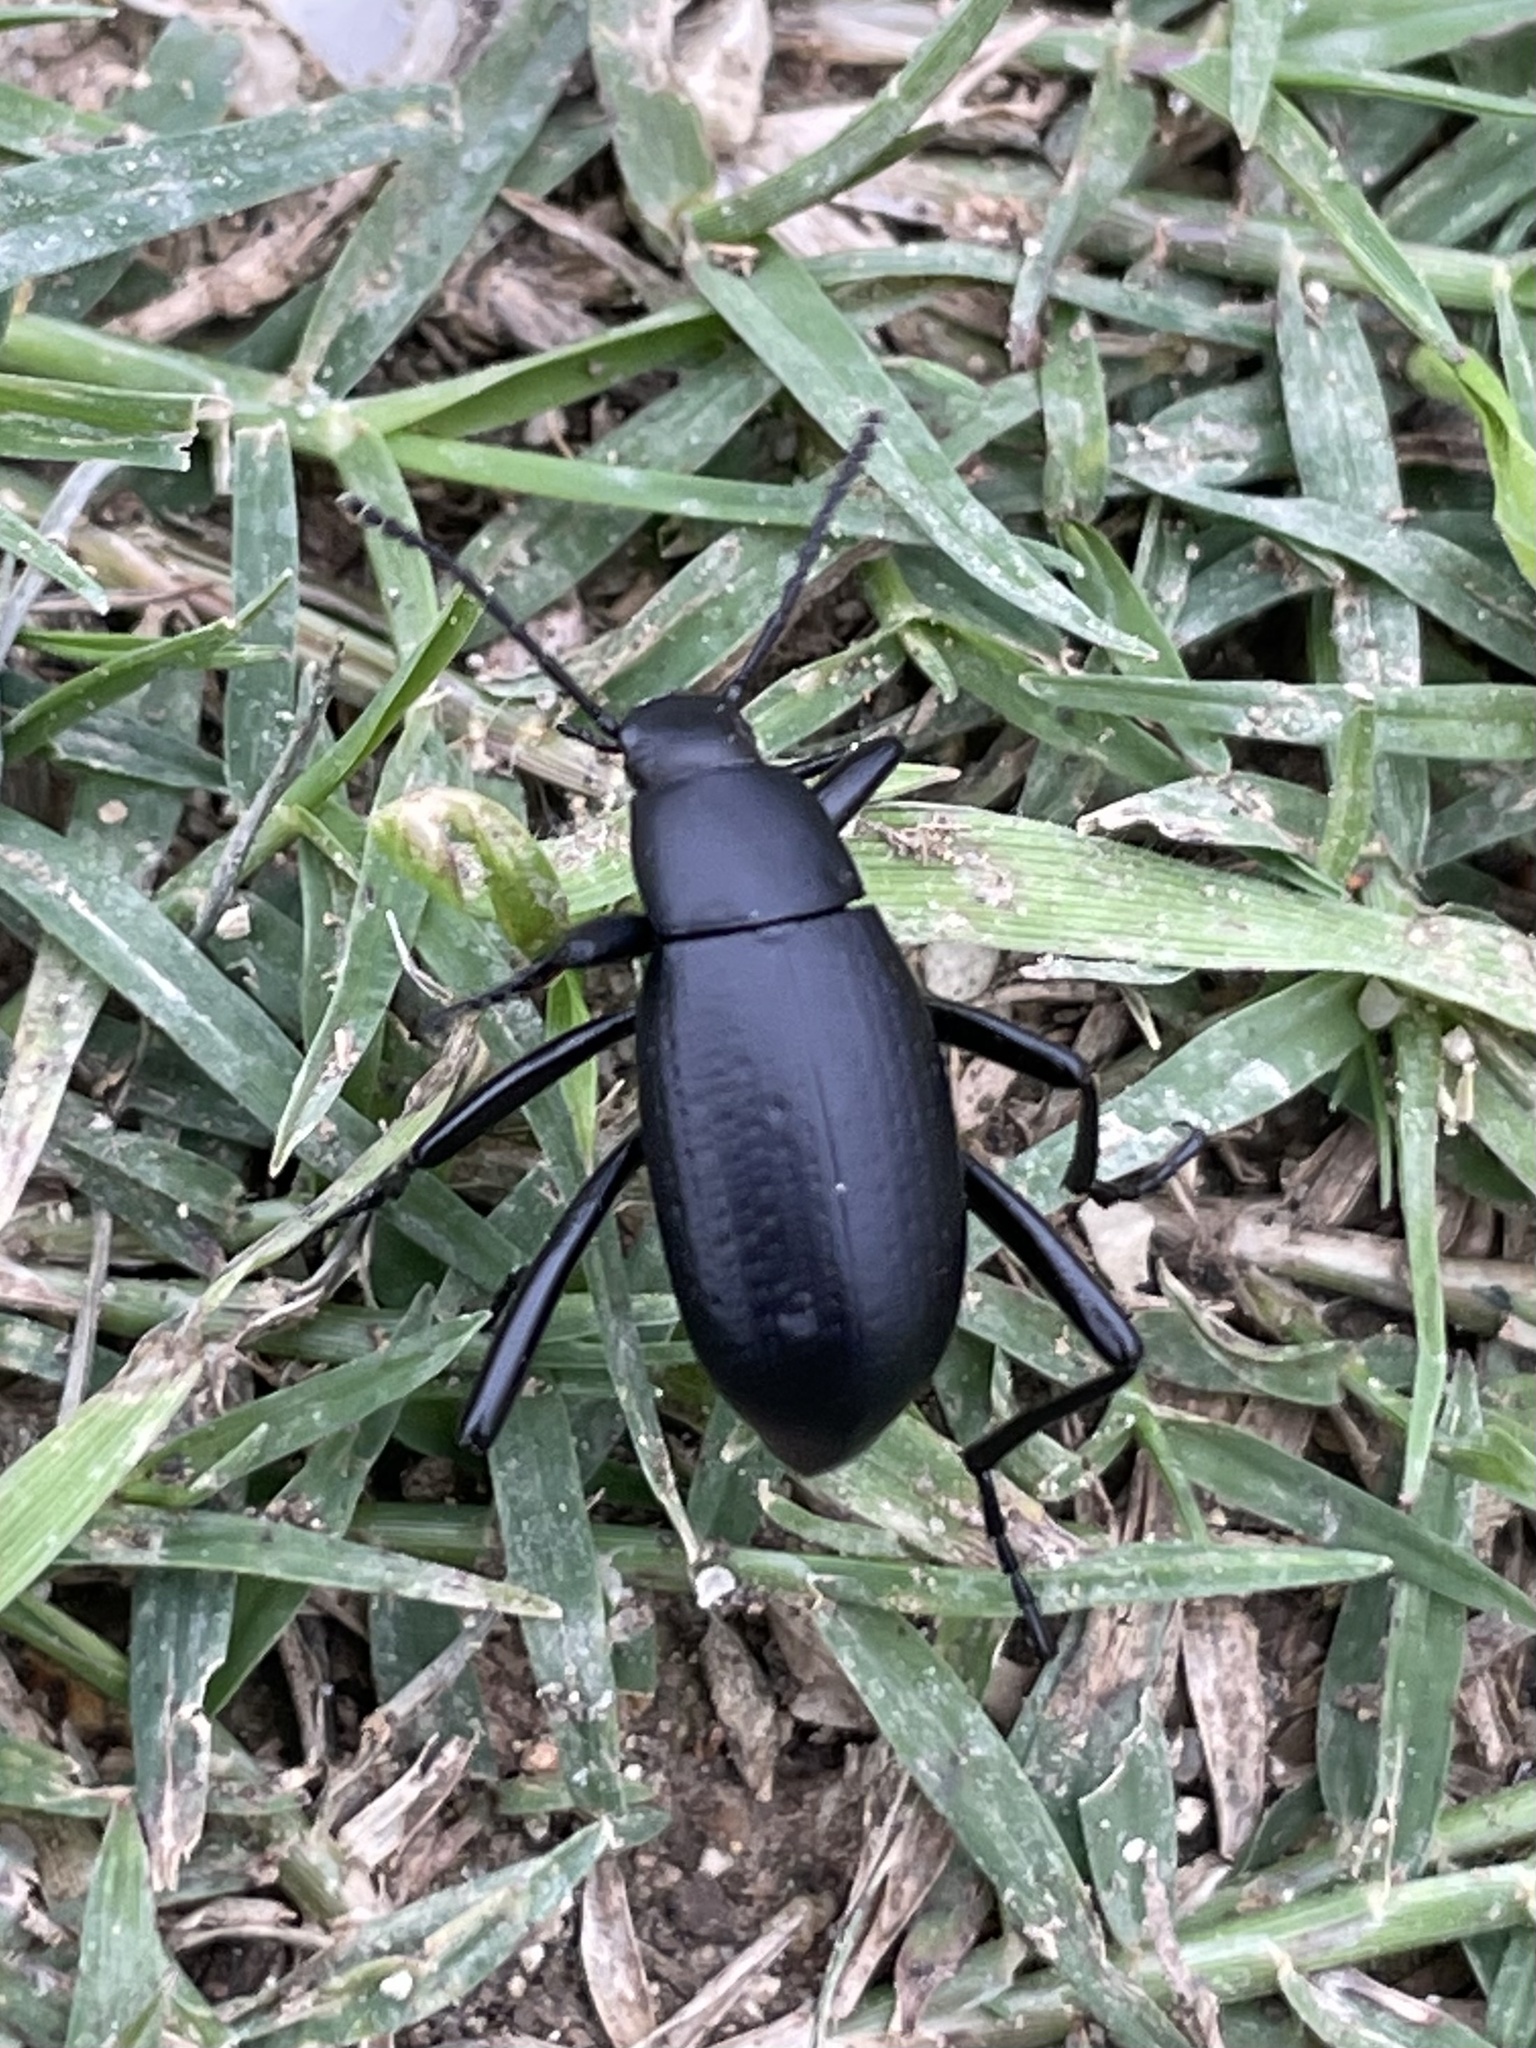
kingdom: Animalia
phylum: Arthropoda
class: Insecta
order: Coleoptera
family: Tenebrionidae
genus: Eleodes
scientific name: Eleodes goryi
